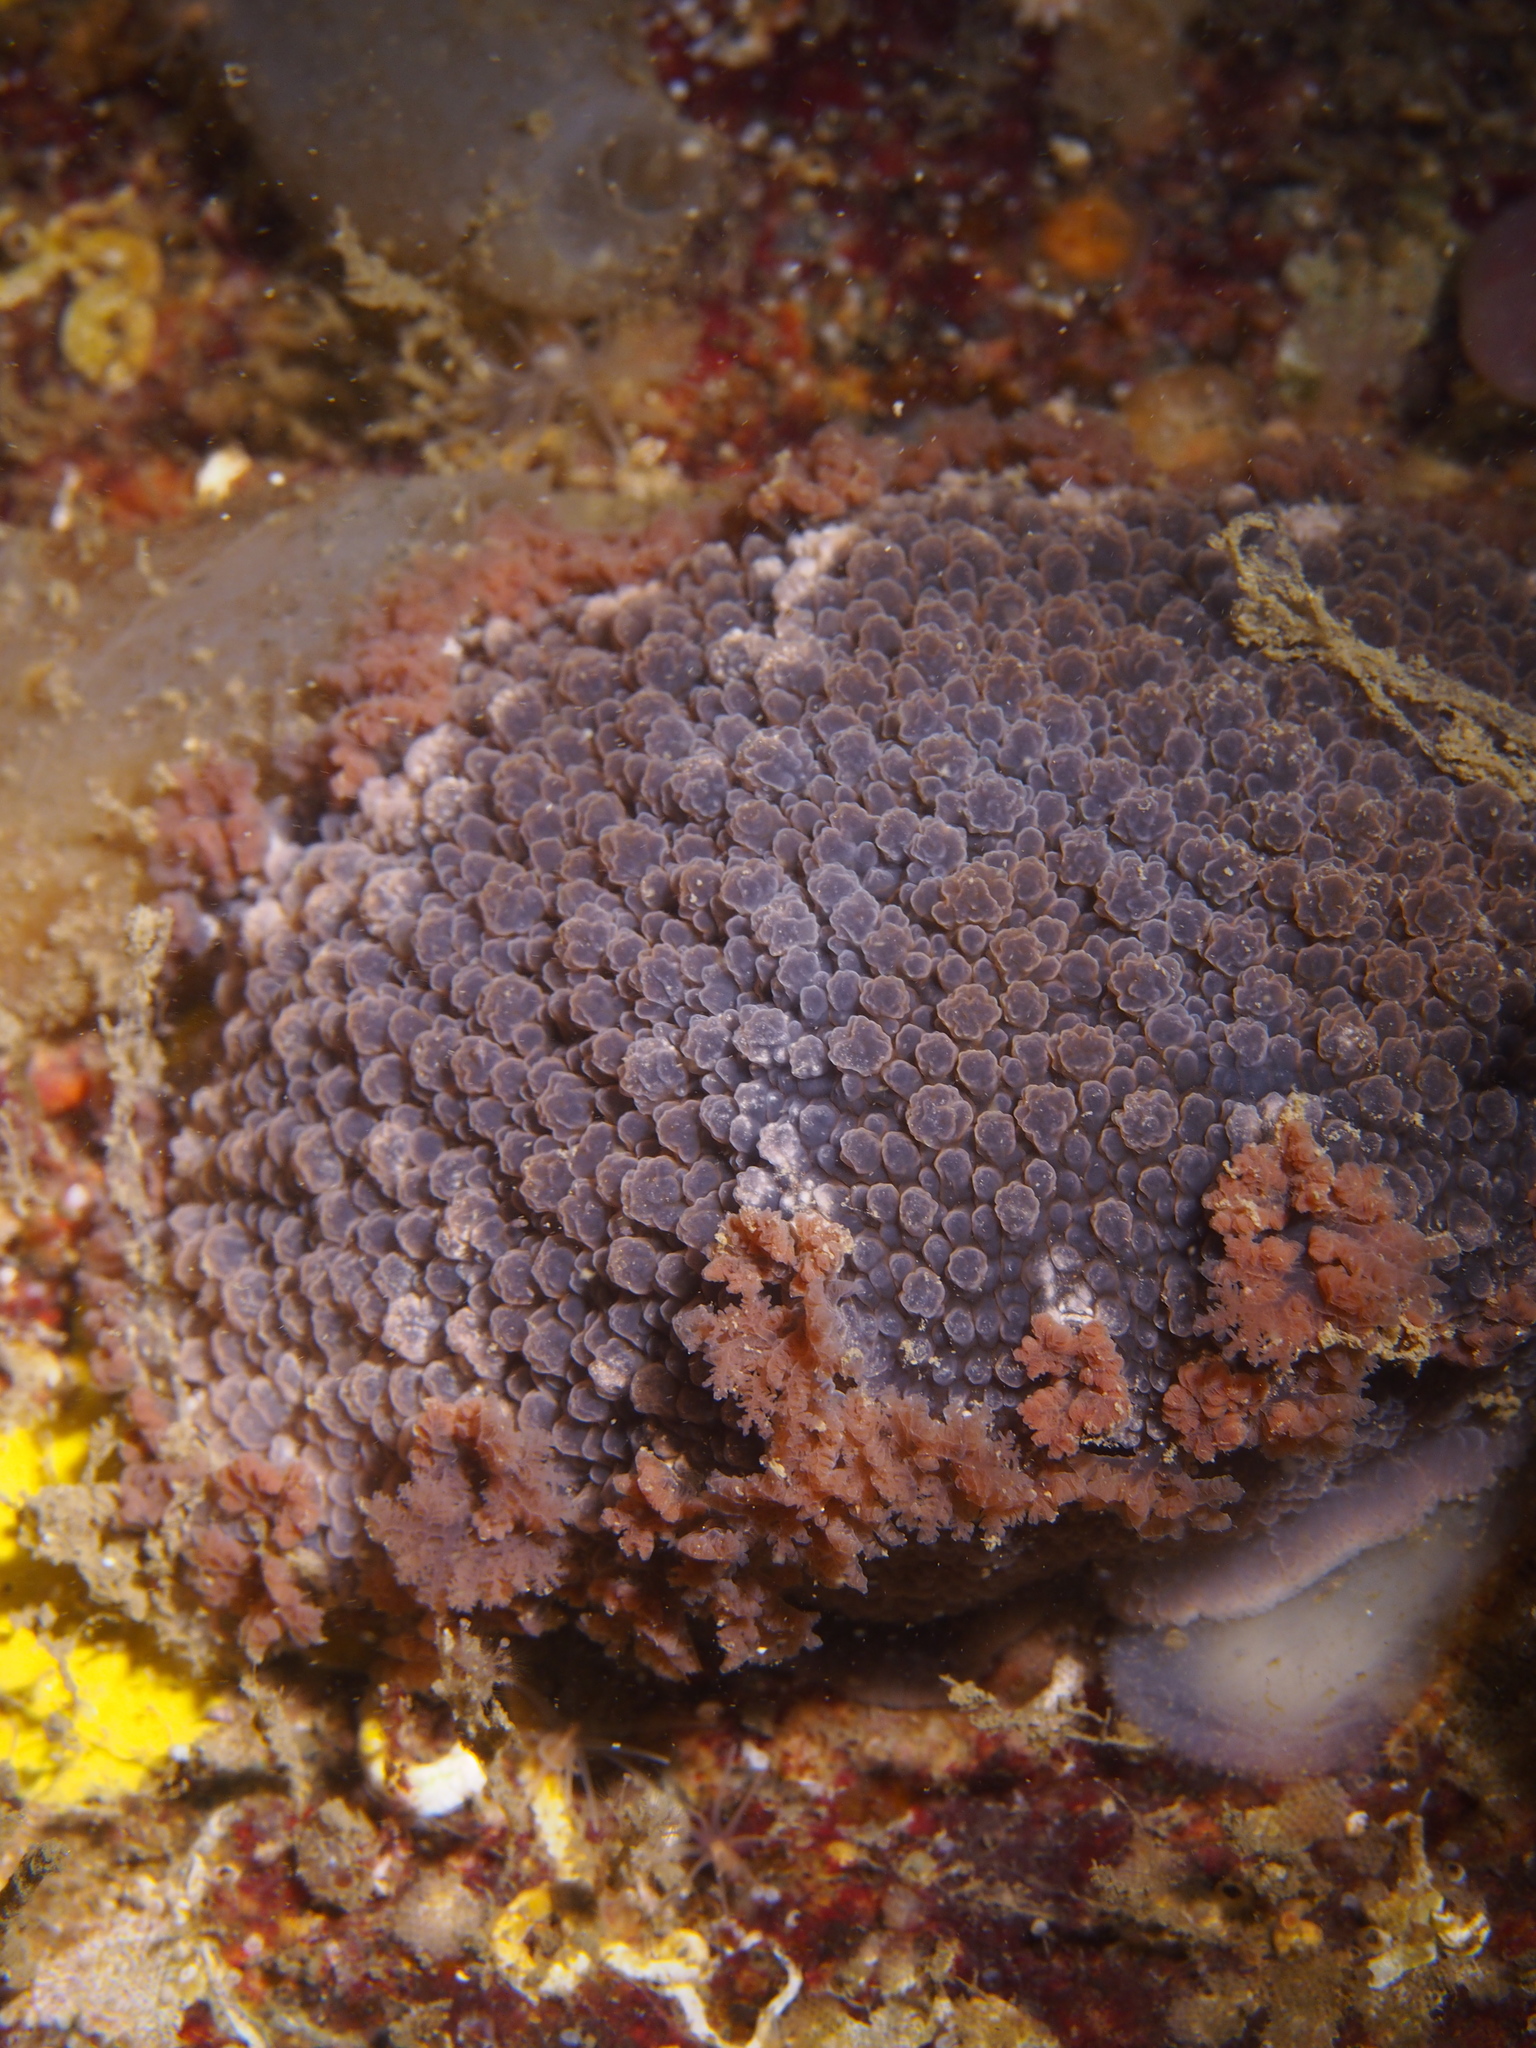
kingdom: Animalia
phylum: Mollusca
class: Gastropoda
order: Nudibranchia
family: Tritoniidae
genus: Tritonia
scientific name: Tritonia hombergii
